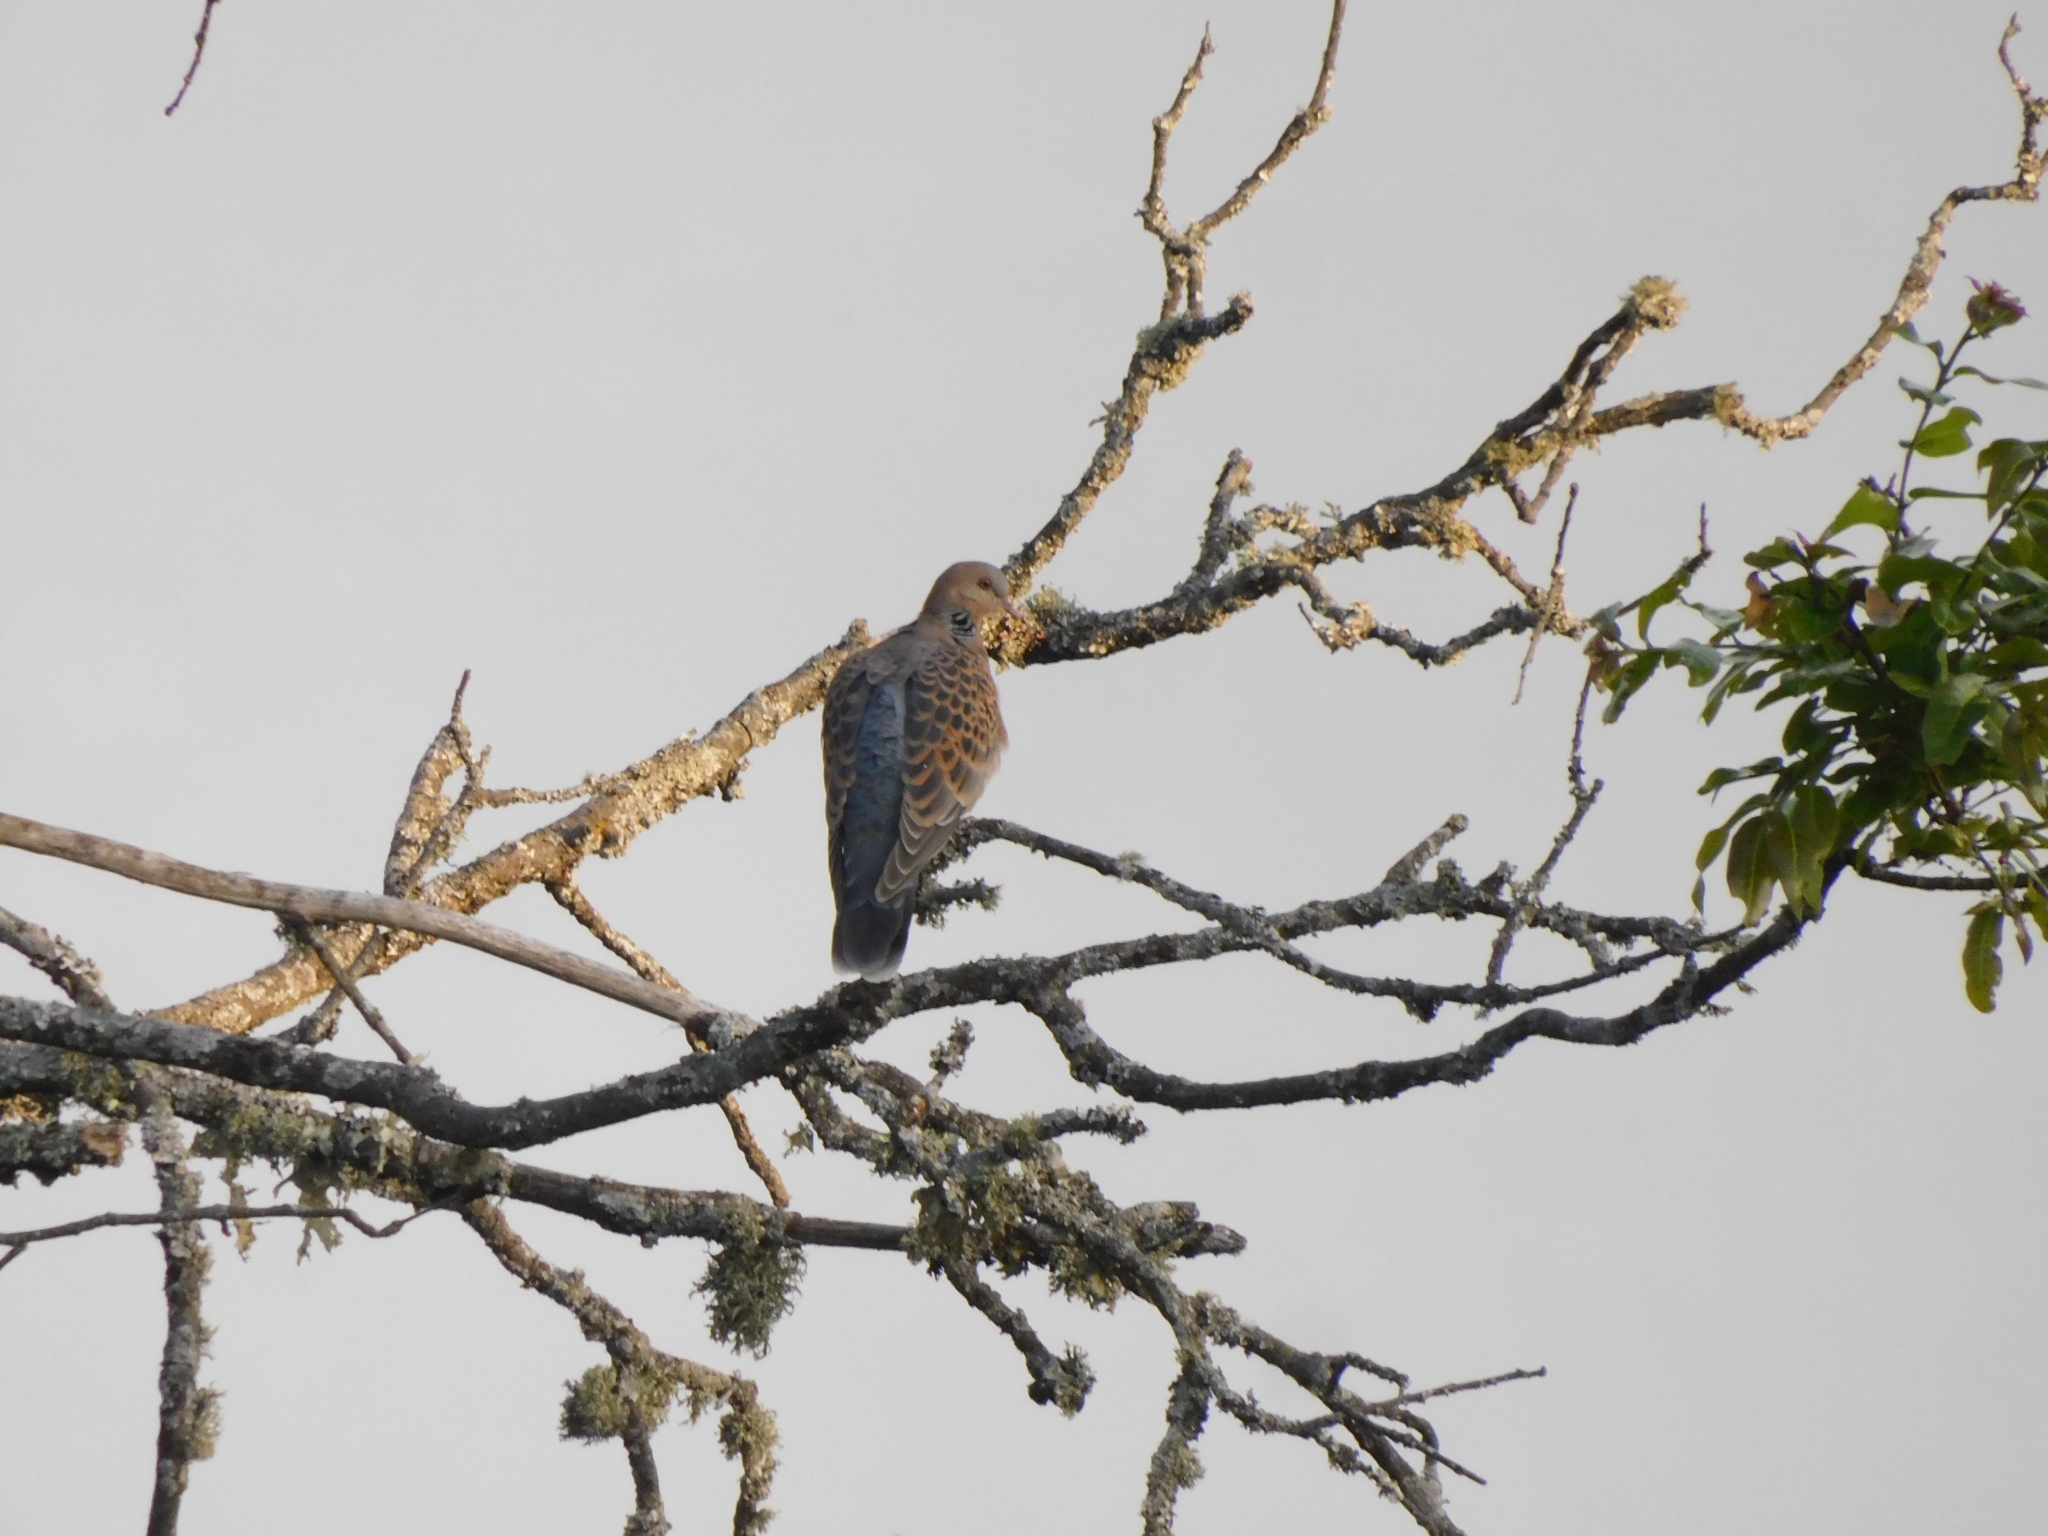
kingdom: Animalia
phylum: Chordata
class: Aves
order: Columbiformes
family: Columbidae
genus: Streptopelia
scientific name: Streptopelia orientalis
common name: Oriental turtle dove
